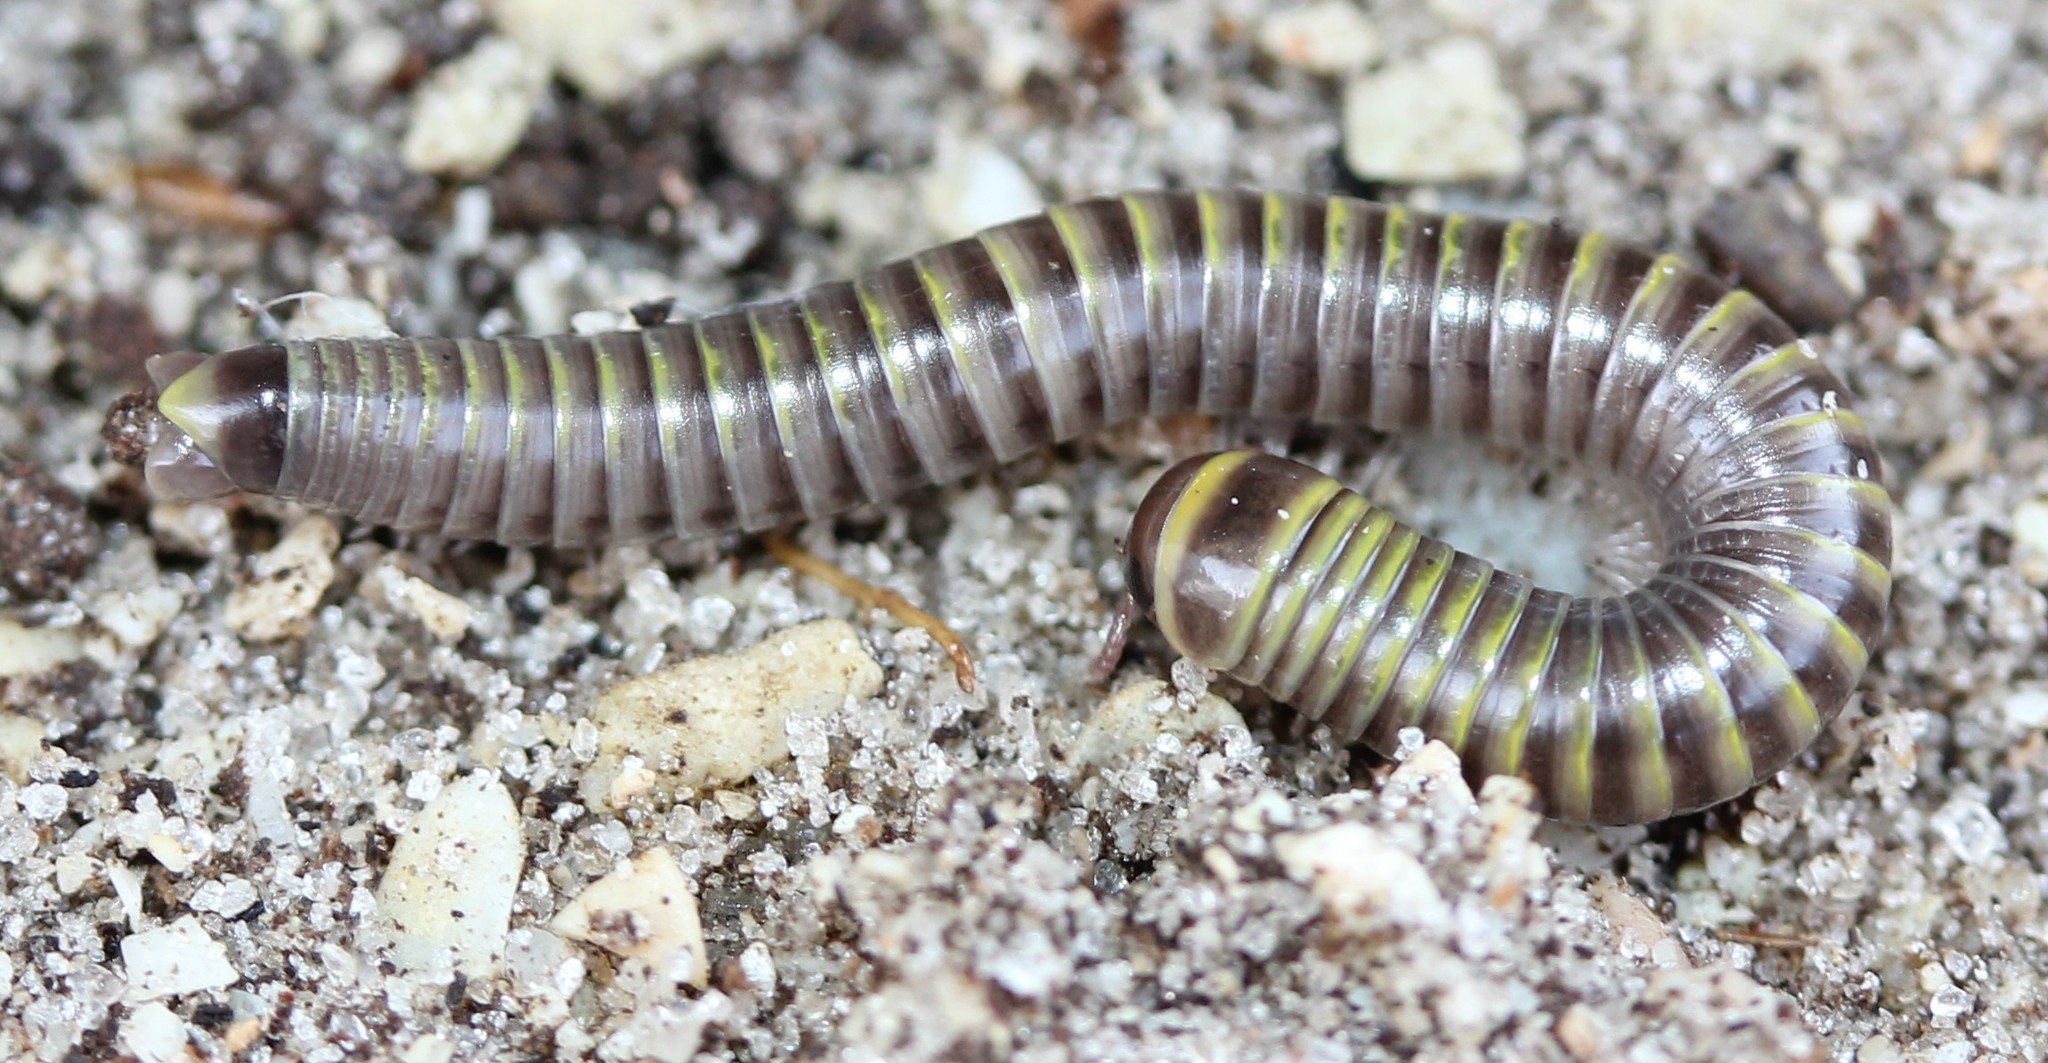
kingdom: Animalia
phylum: Arthropoda
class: Diplopoda
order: Spirobolida
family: Rhinocricidae
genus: Anadenobolus
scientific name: Anadenobolus monilicornis
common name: Caribbean millipede
